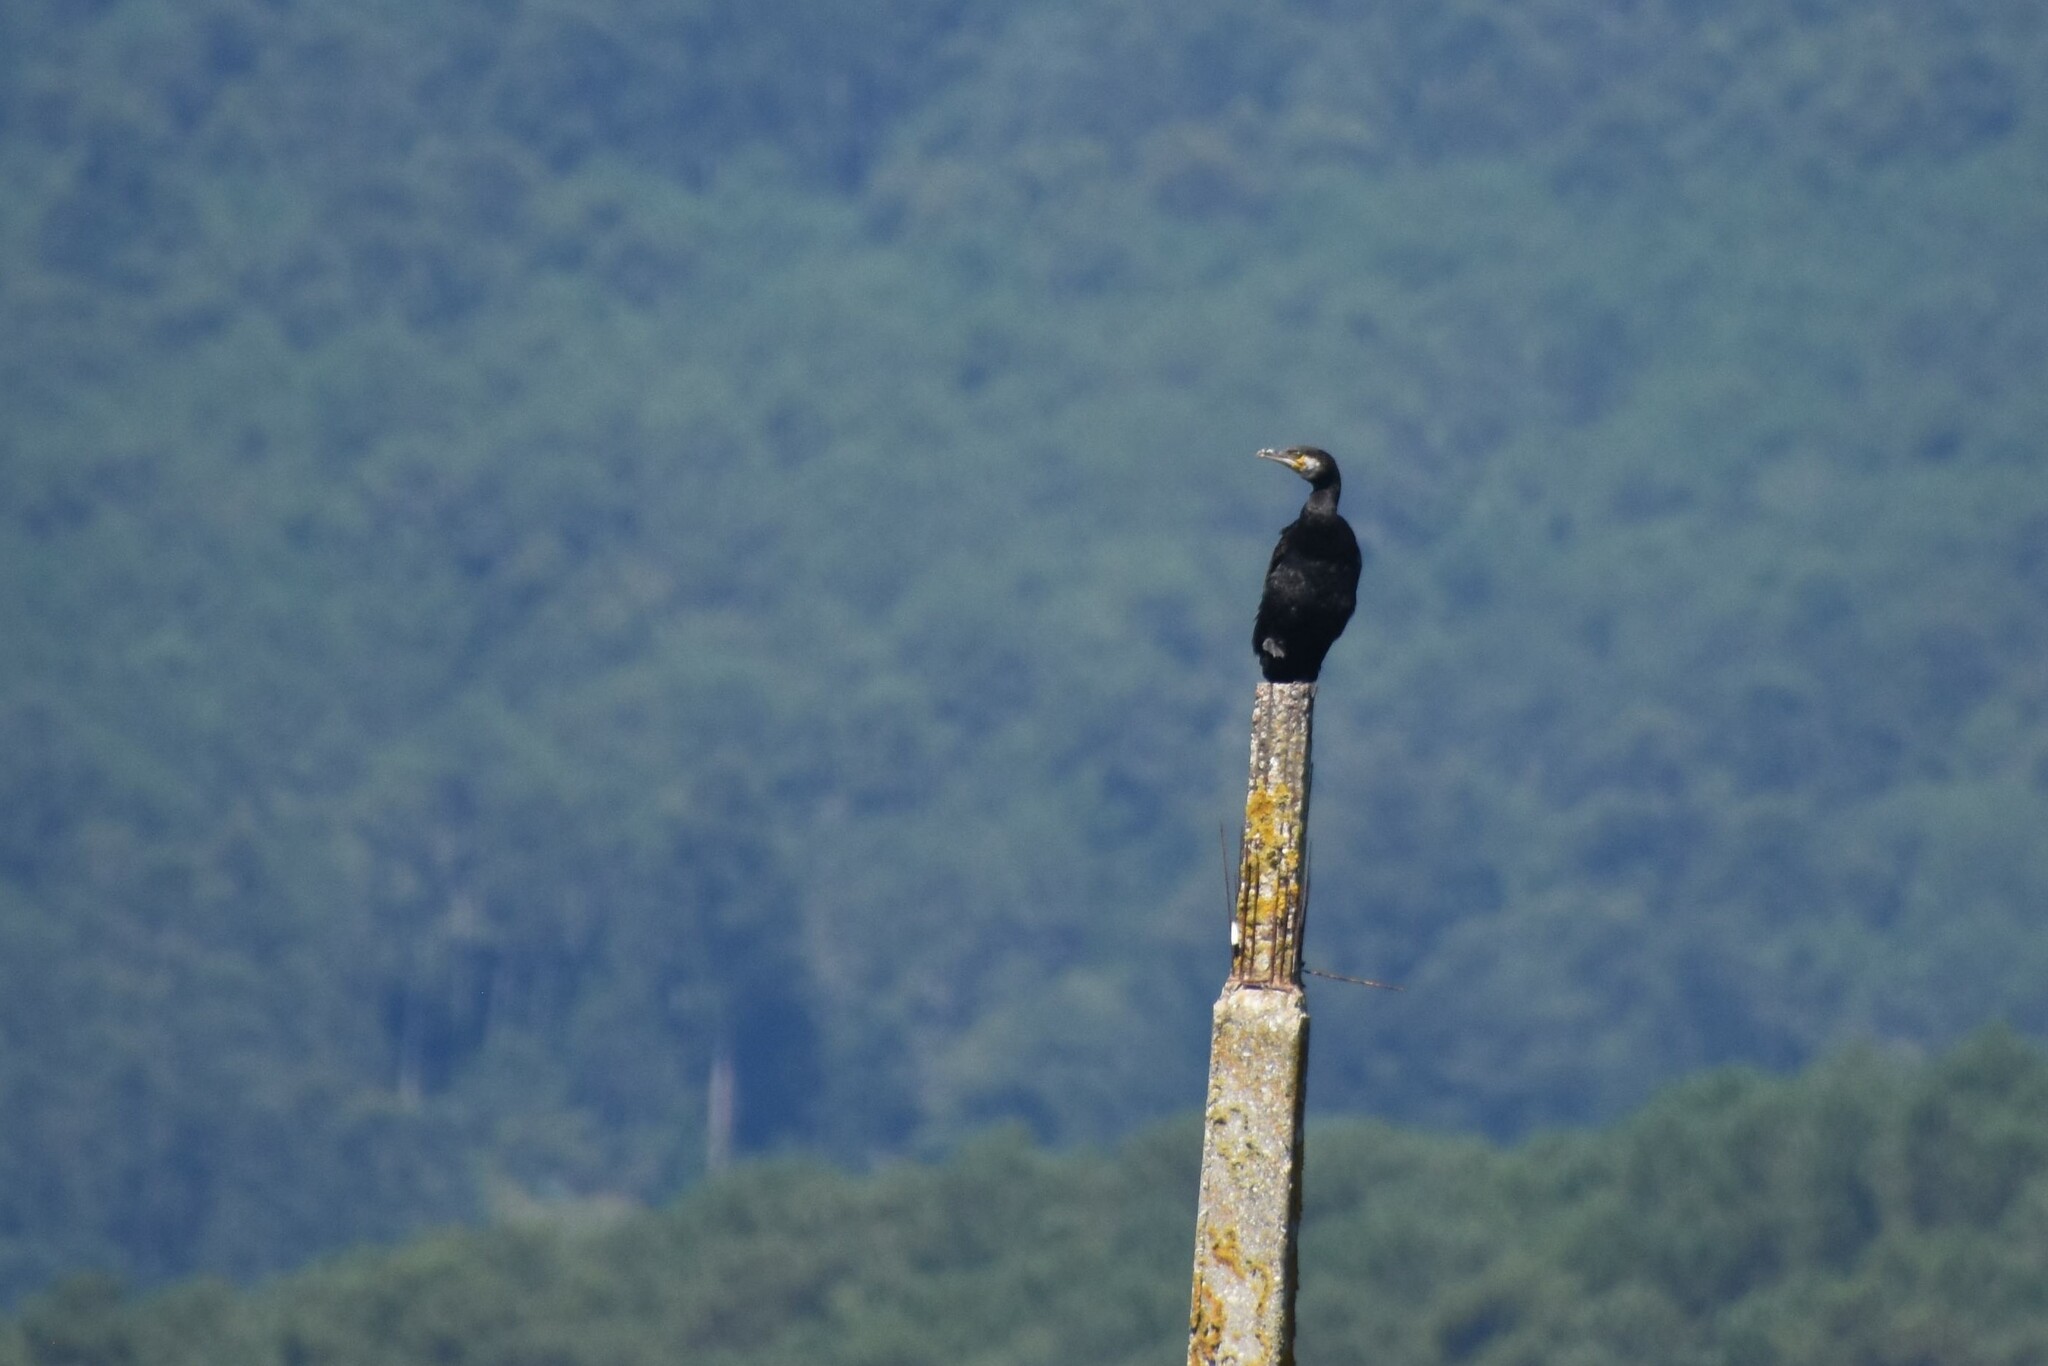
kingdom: Animalia
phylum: Chordata
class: Aves
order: Suliformes
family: Phalacrocoracidae
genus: Phalacrocorax
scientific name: Phalacrocorax carbo
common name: Great cormorant
